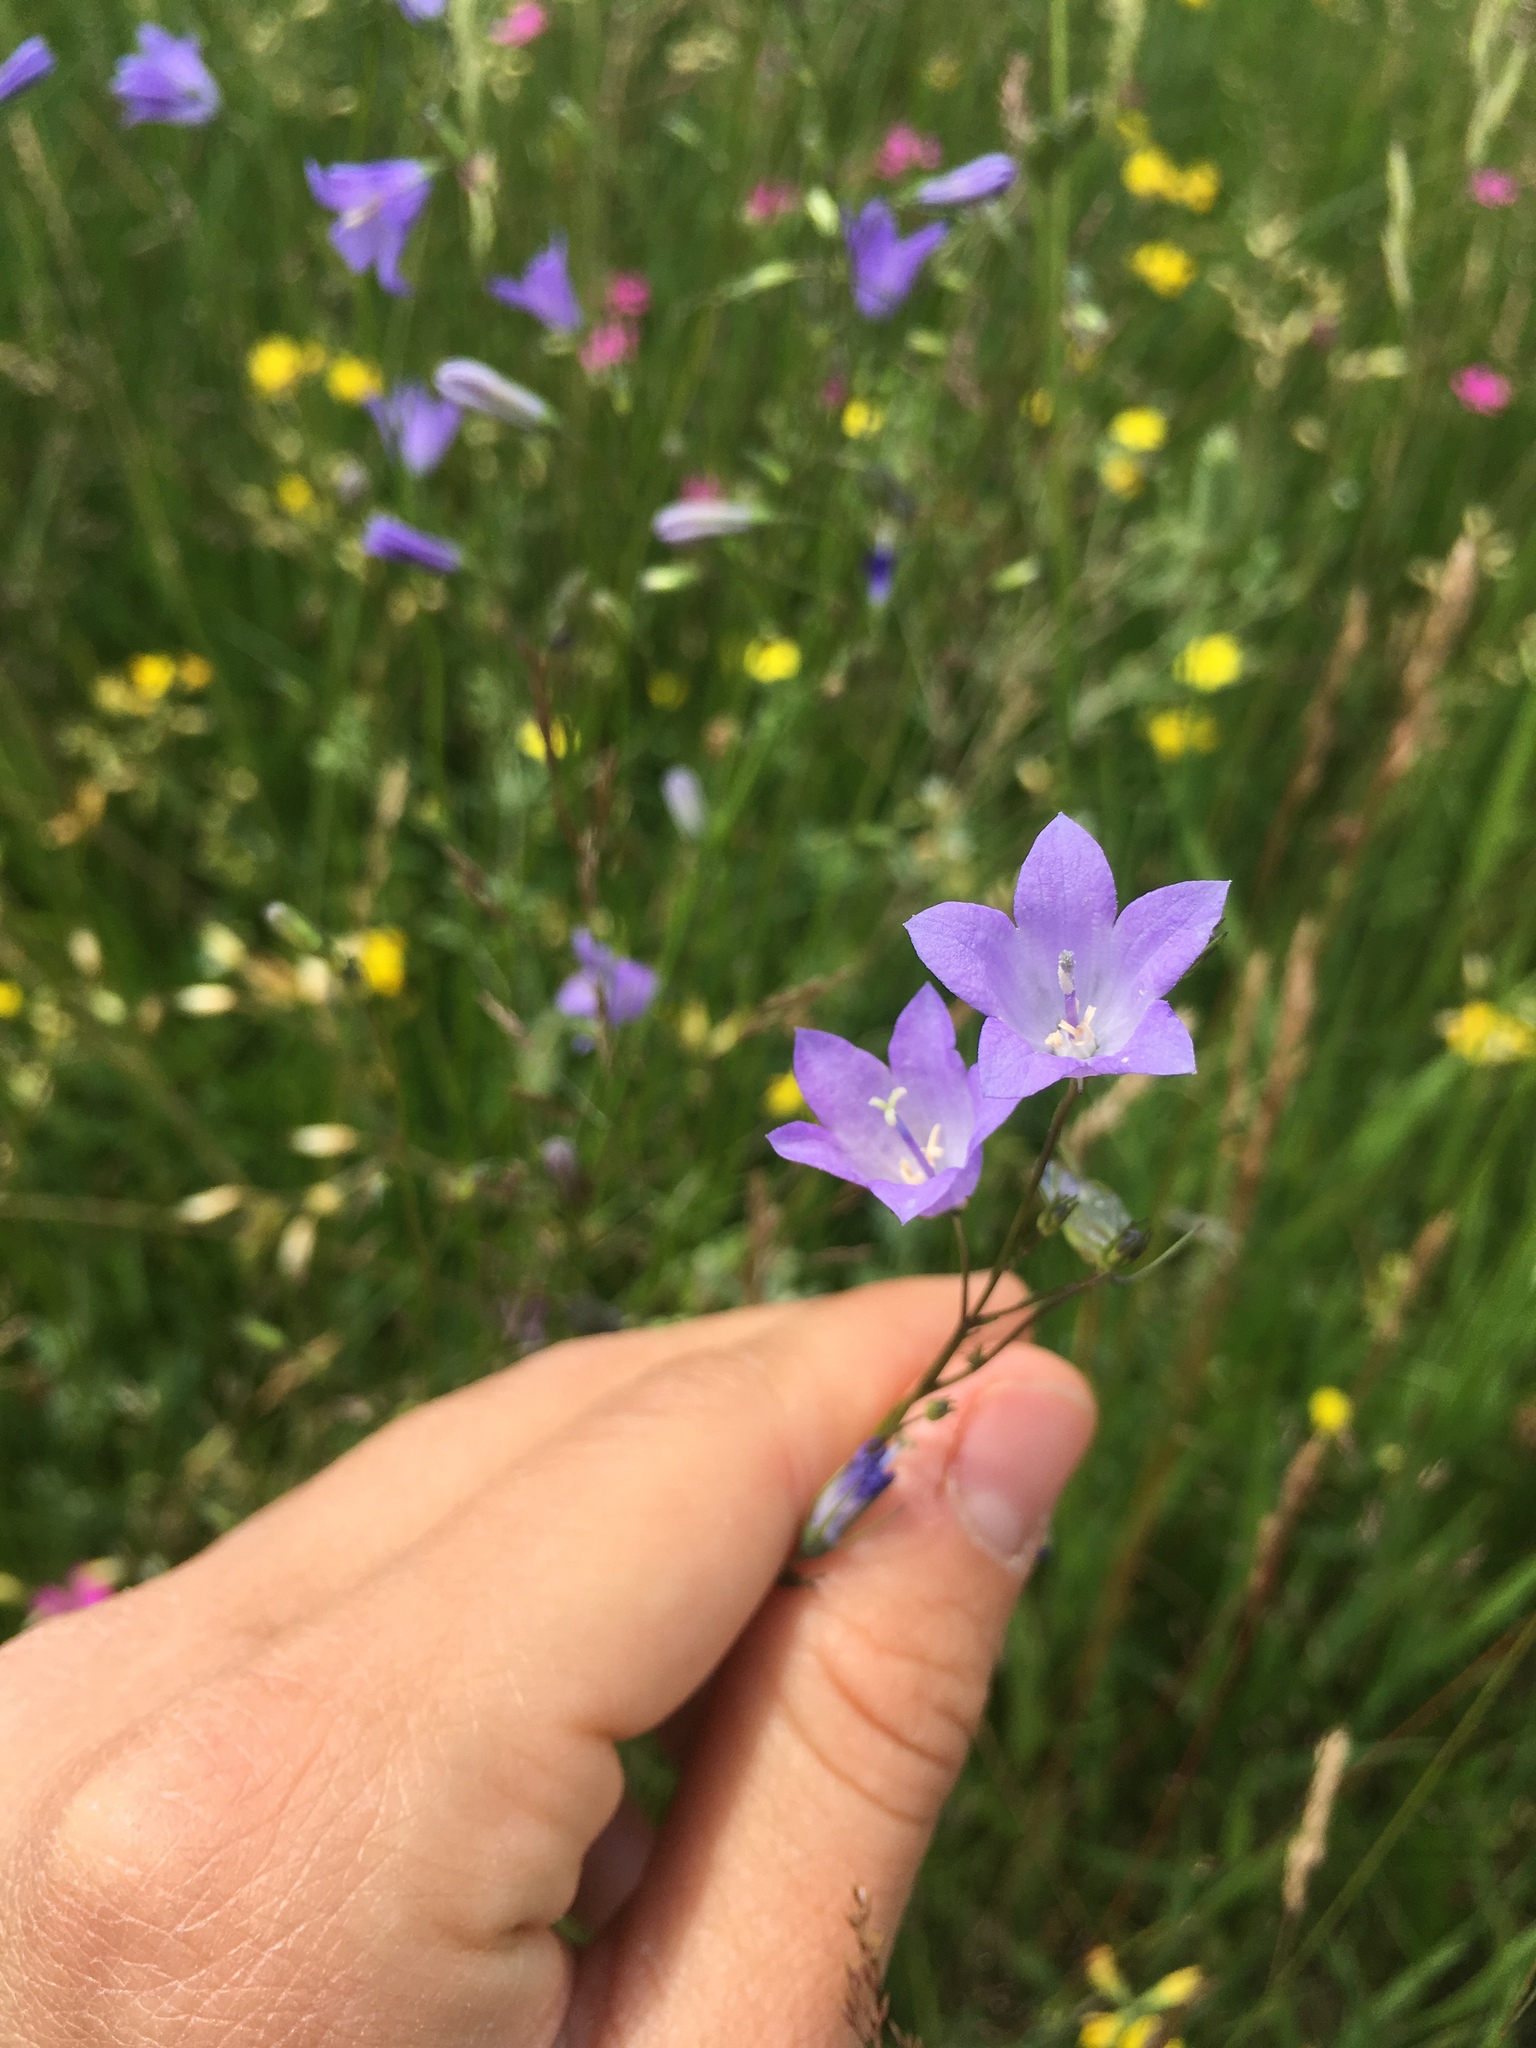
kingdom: Plantae
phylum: Tracheophyta
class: Magnoliopsida
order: Asterales
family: Campanulaceae
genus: Campanula
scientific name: Campanula stevenii
